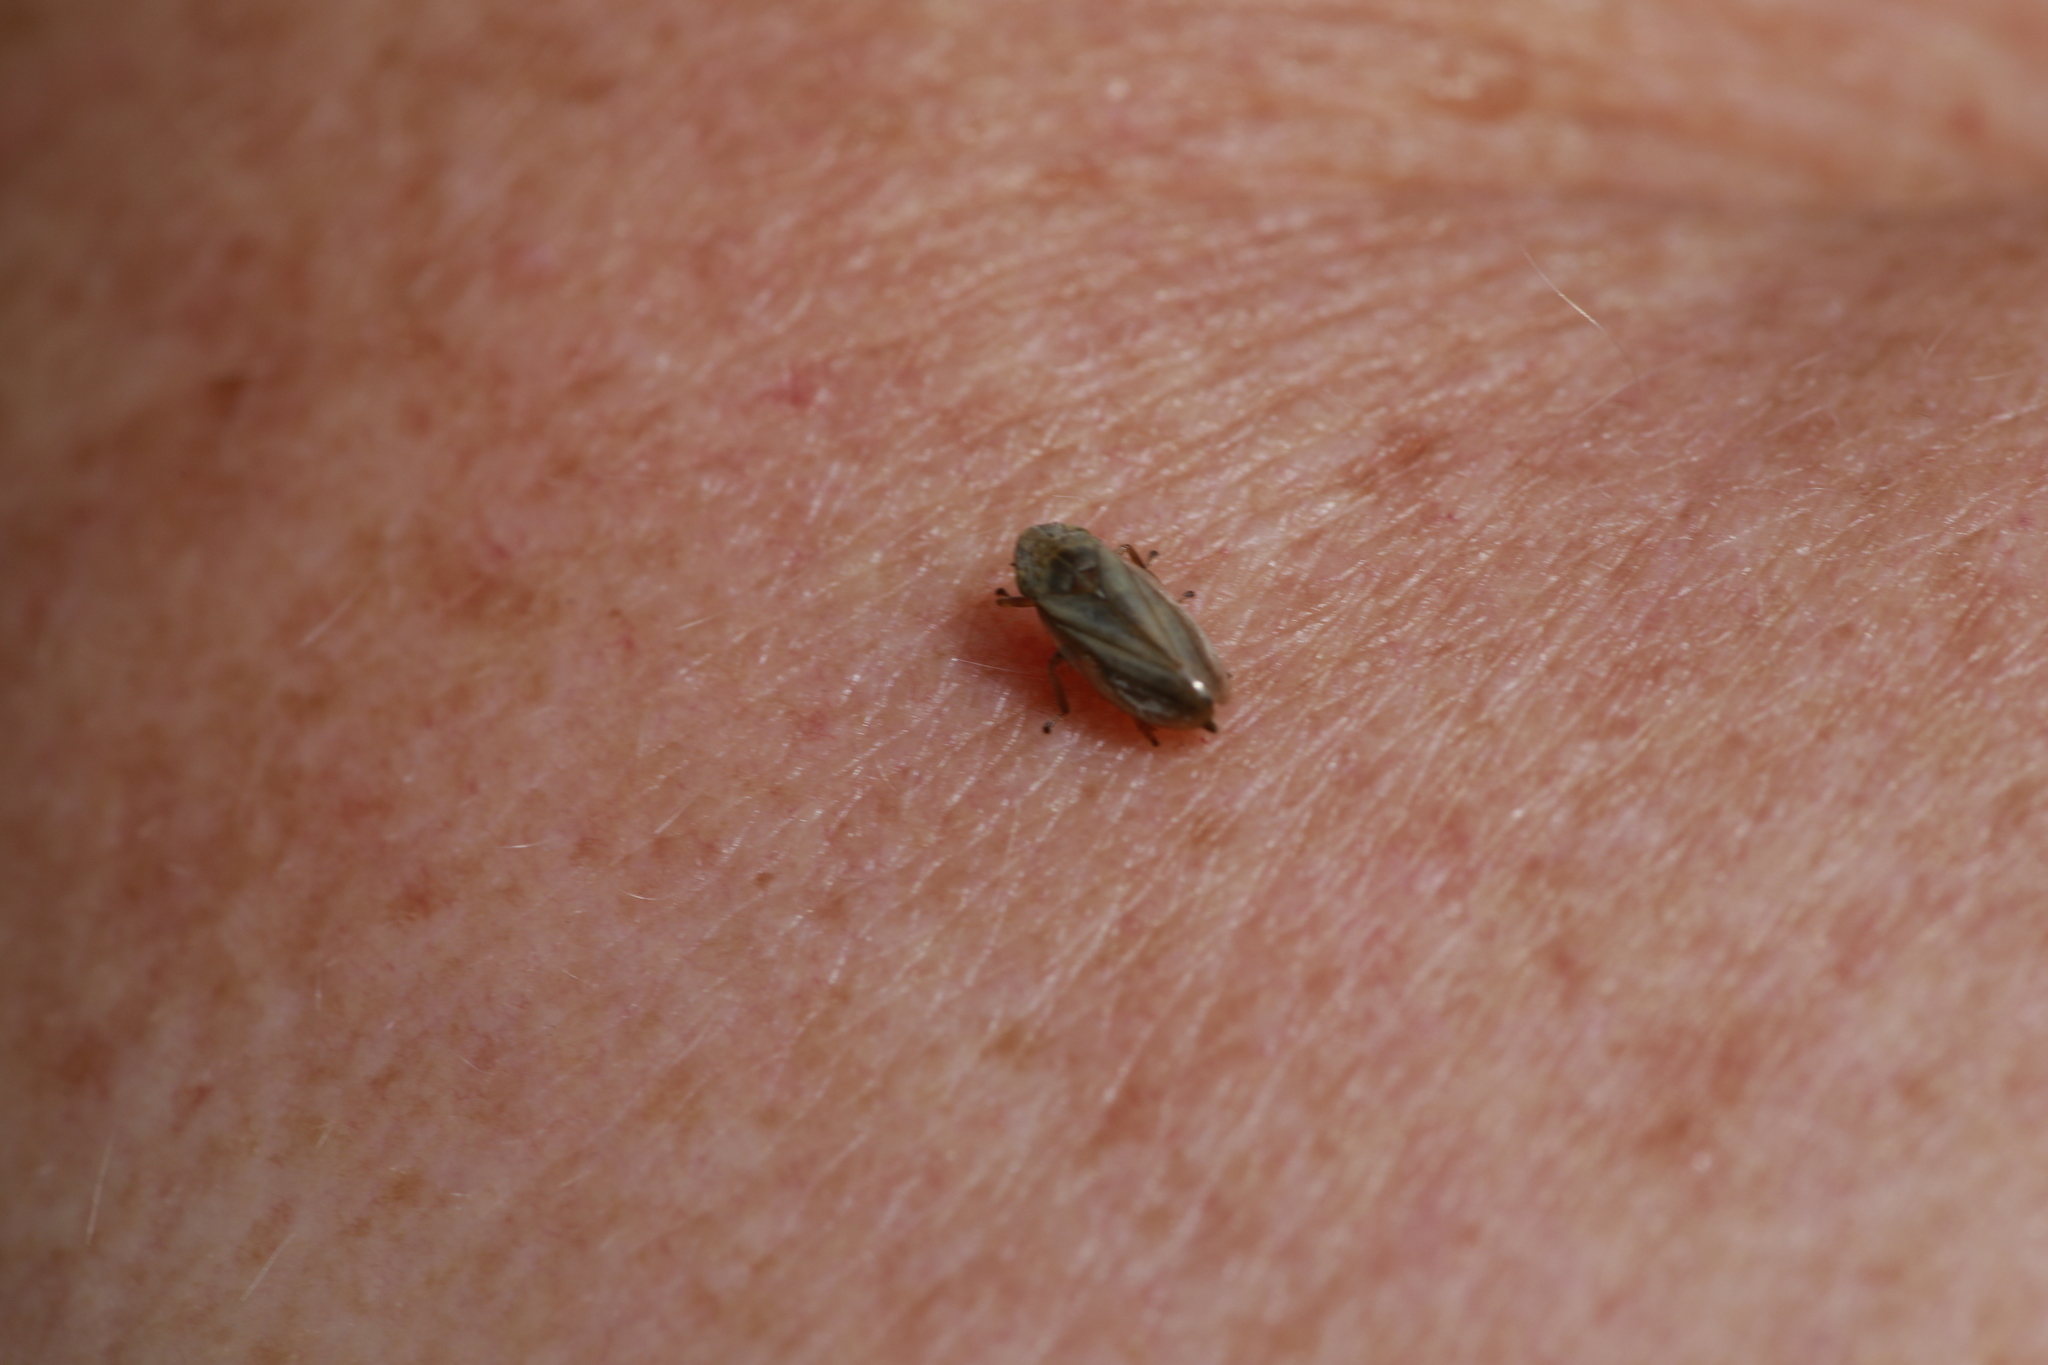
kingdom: Animalia
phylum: Arthropoda
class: Insecta
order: Hemiptera
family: Aphrophoridae
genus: Philaenus
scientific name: Philaenus spumarius
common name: Meadow spittlebug
